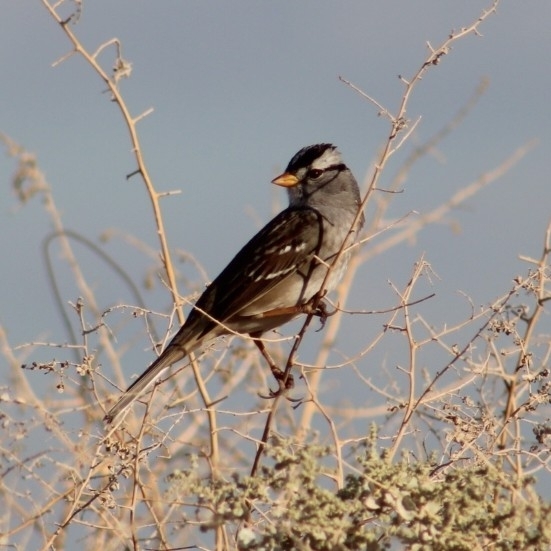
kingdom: Animalia
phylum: Chordata
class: Aves
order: Passeriformes
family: Passerellidae
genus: Zonotrichia
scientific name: Zonotrichia leucophrys
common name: White-crowned sparrow
